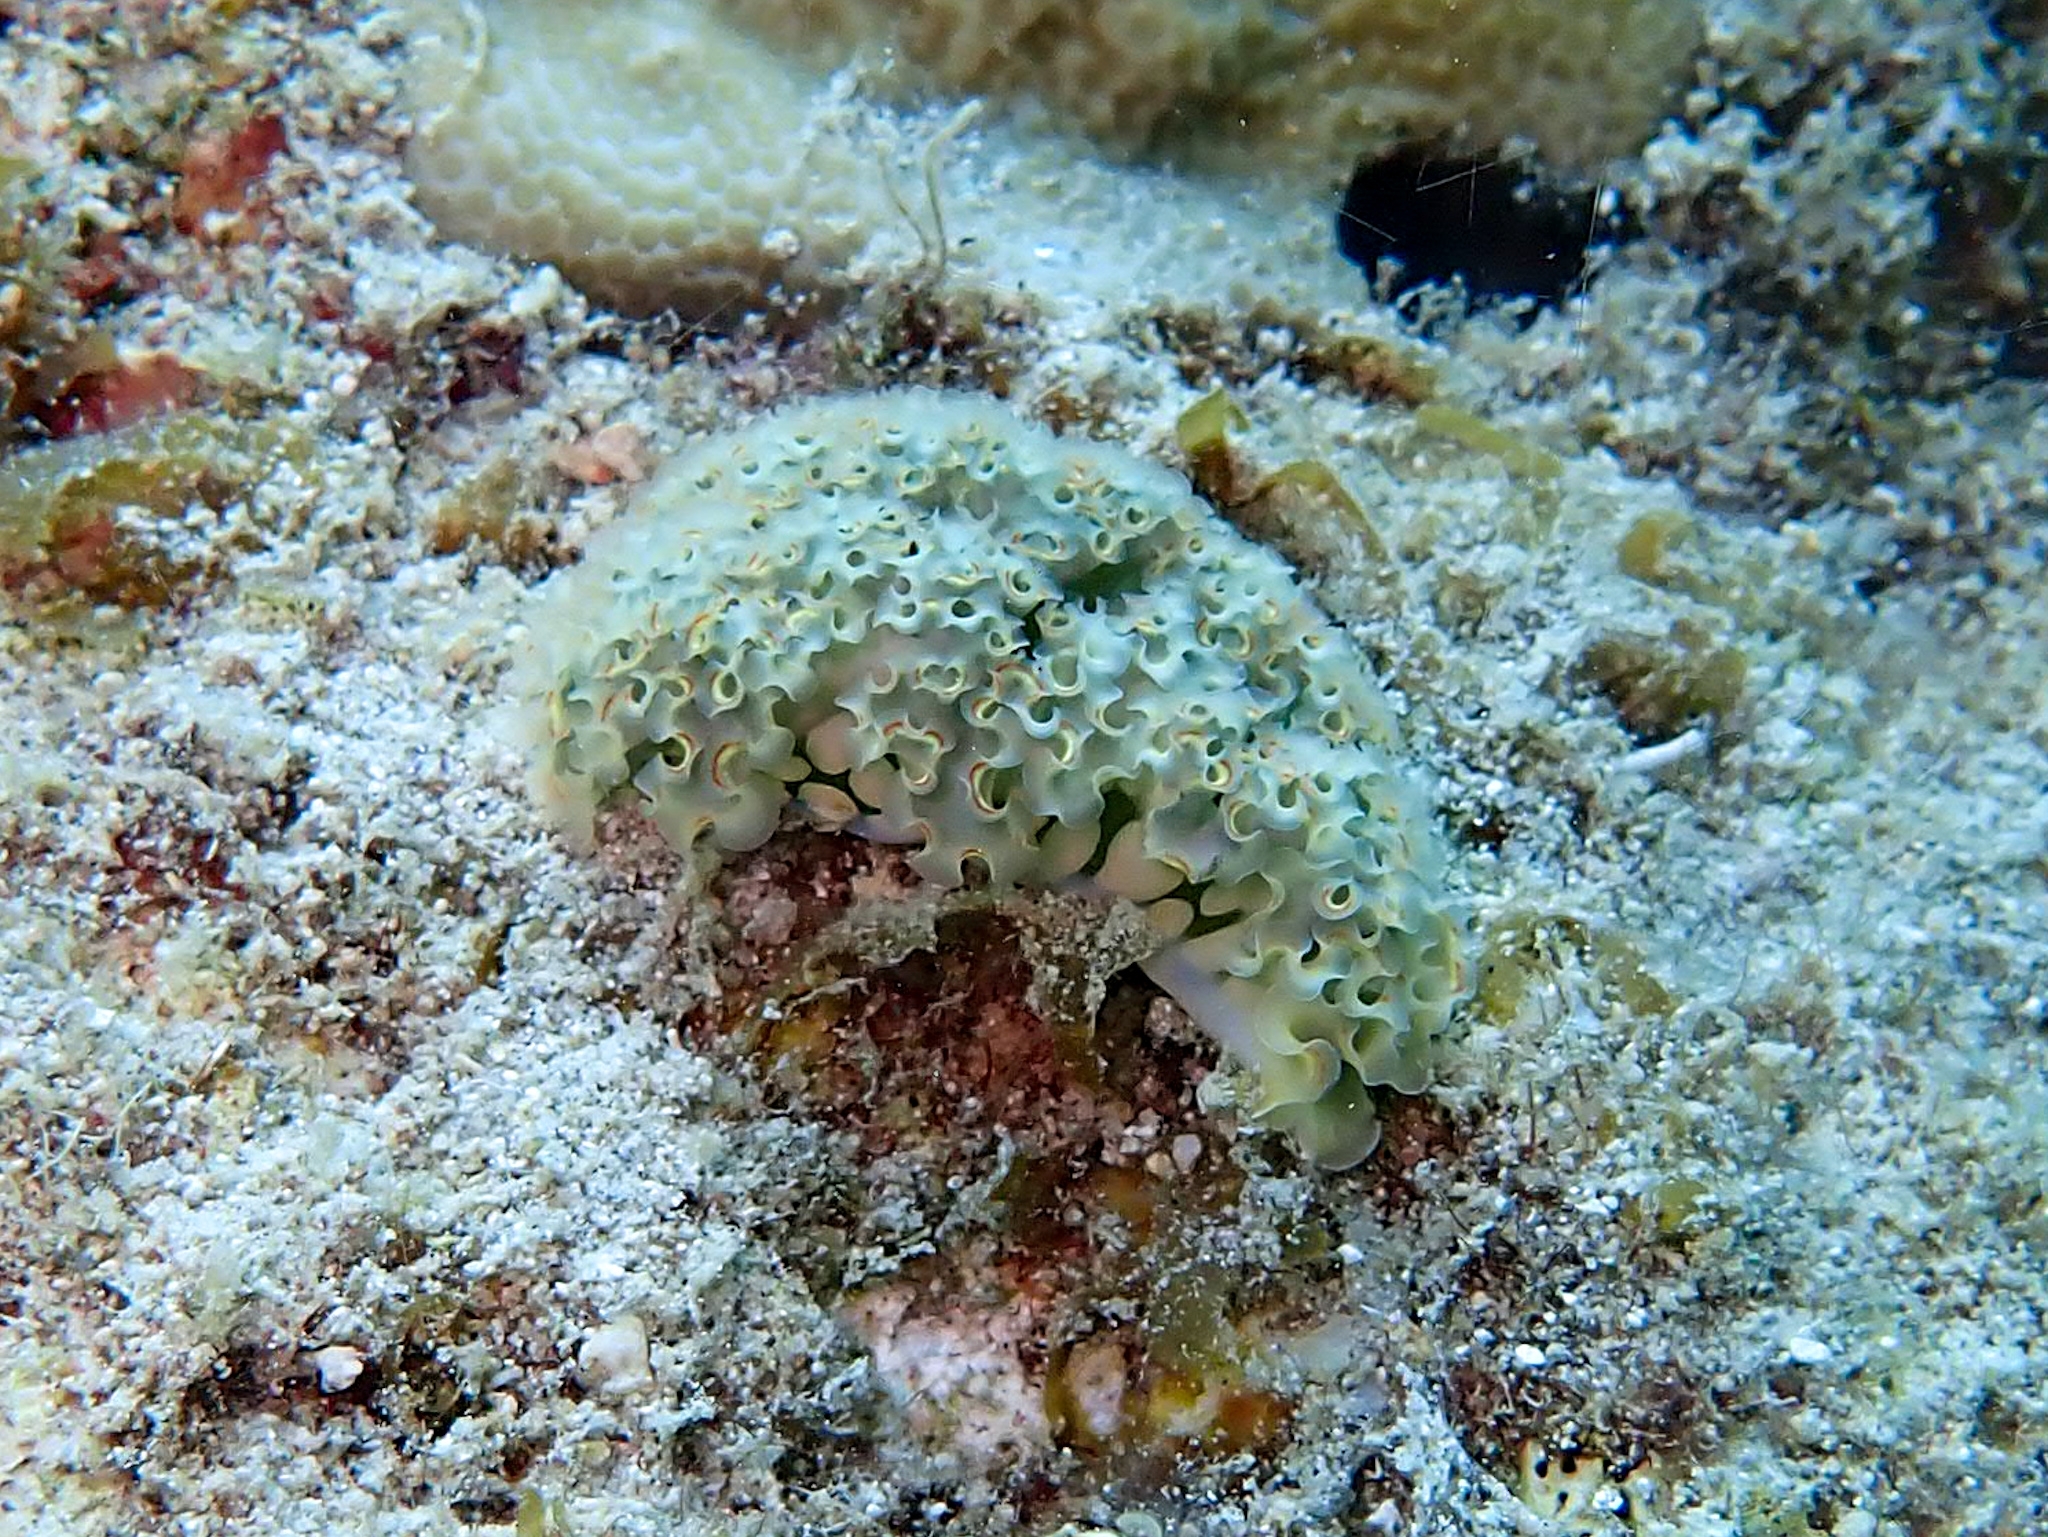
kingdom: Animalia
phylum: Mollusca
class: Gastropoda
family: Plakobranchidae
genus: Elysia
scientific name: Elysia crispata
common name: Lettuce slug
